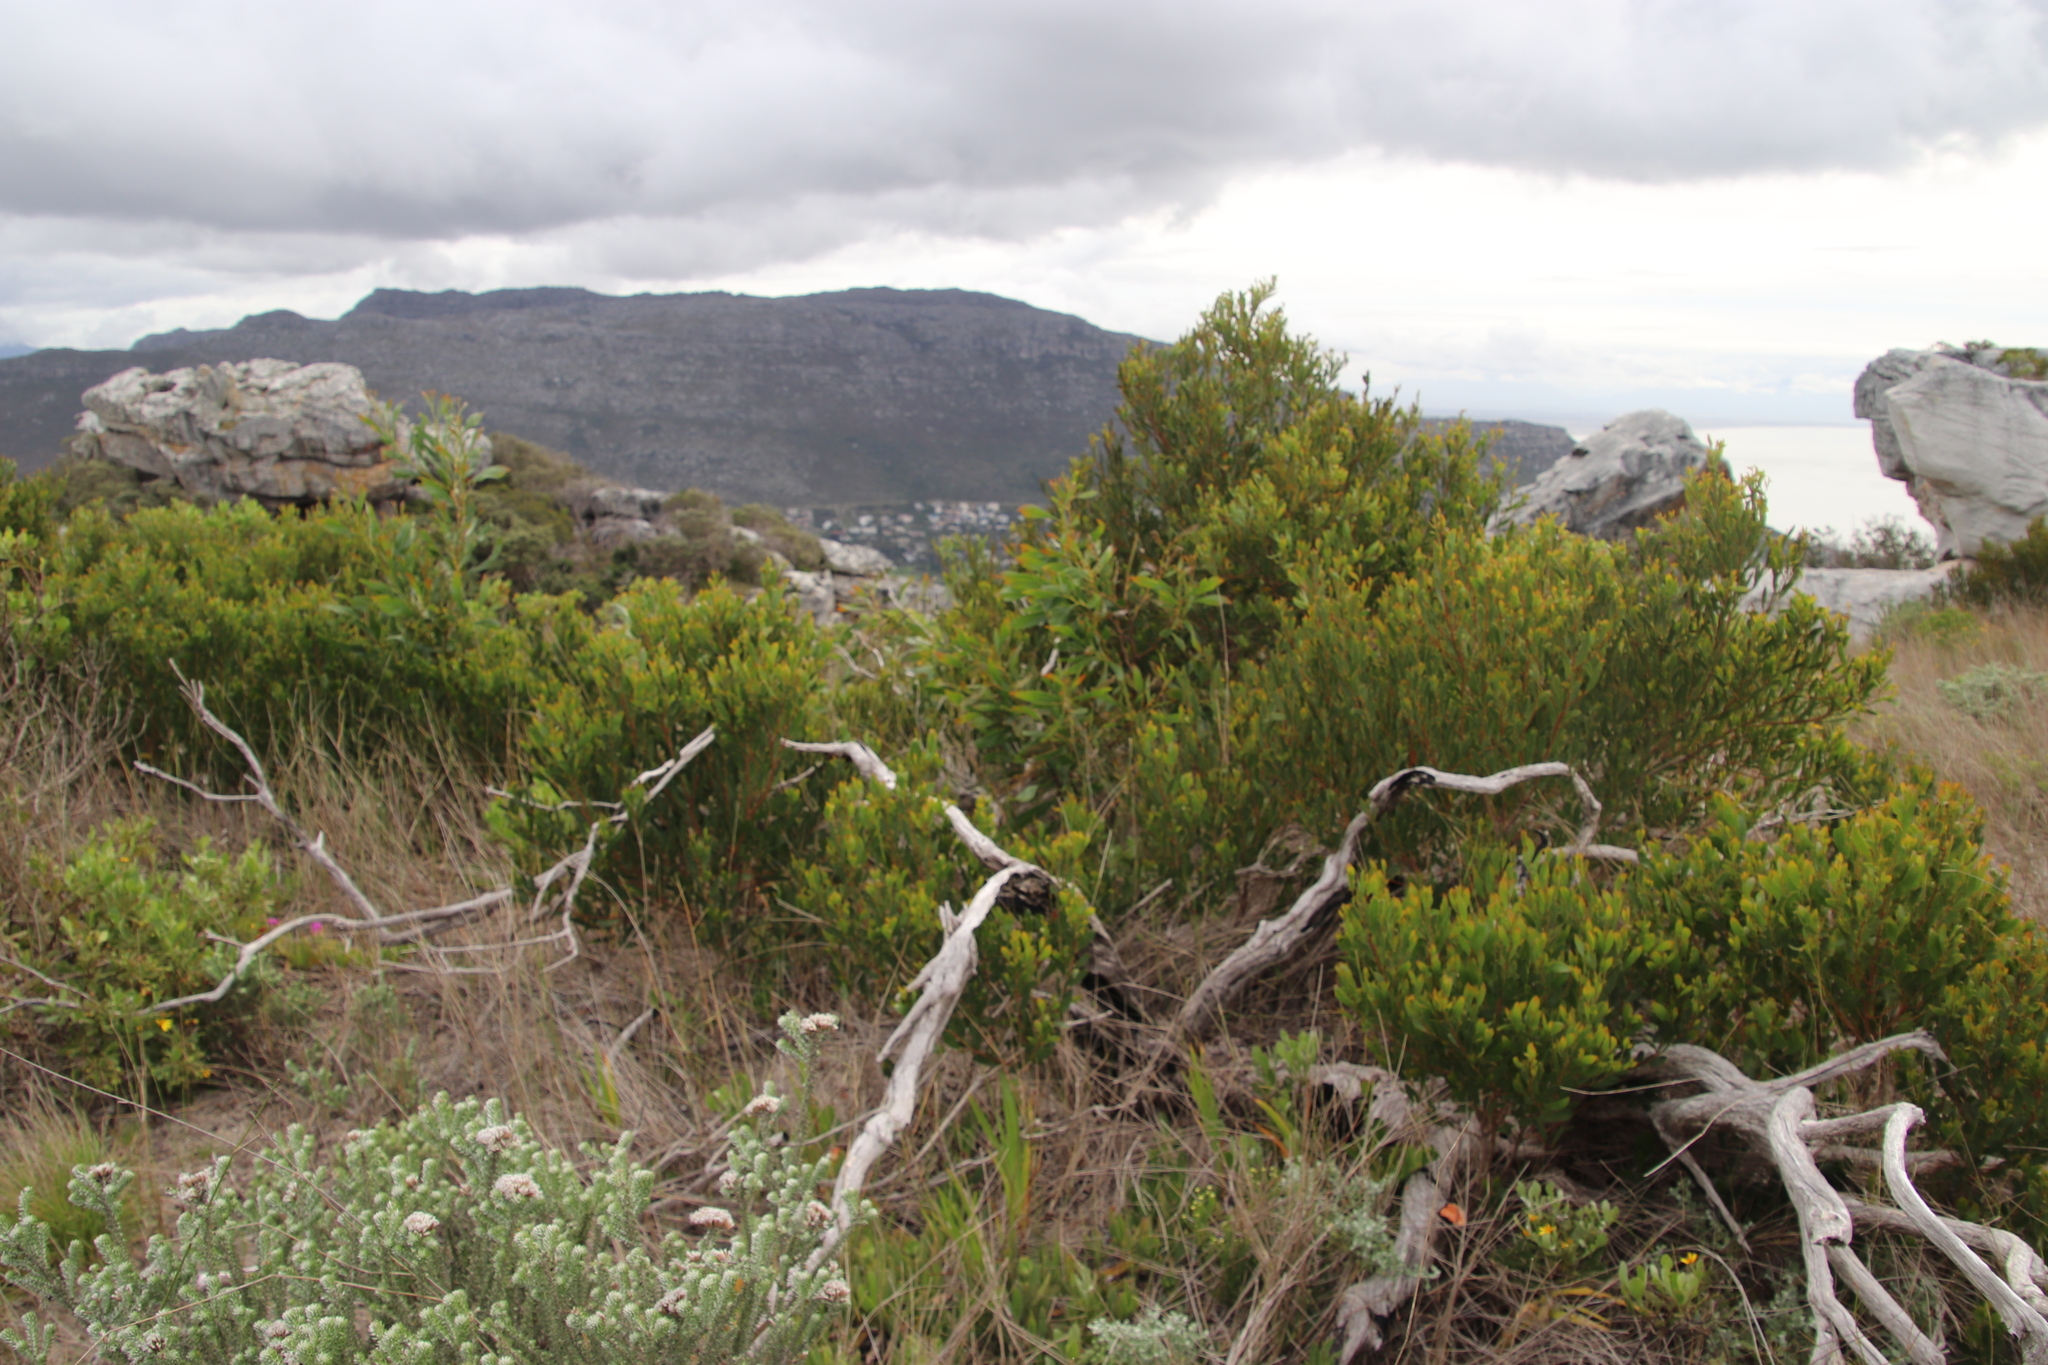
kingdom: Plantae
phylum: Tracheophyta
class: Magnoliopsida
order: Fabales
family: Fabaceae
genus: Acacia
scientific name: Acacia cyclops
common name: Coastal wattle
